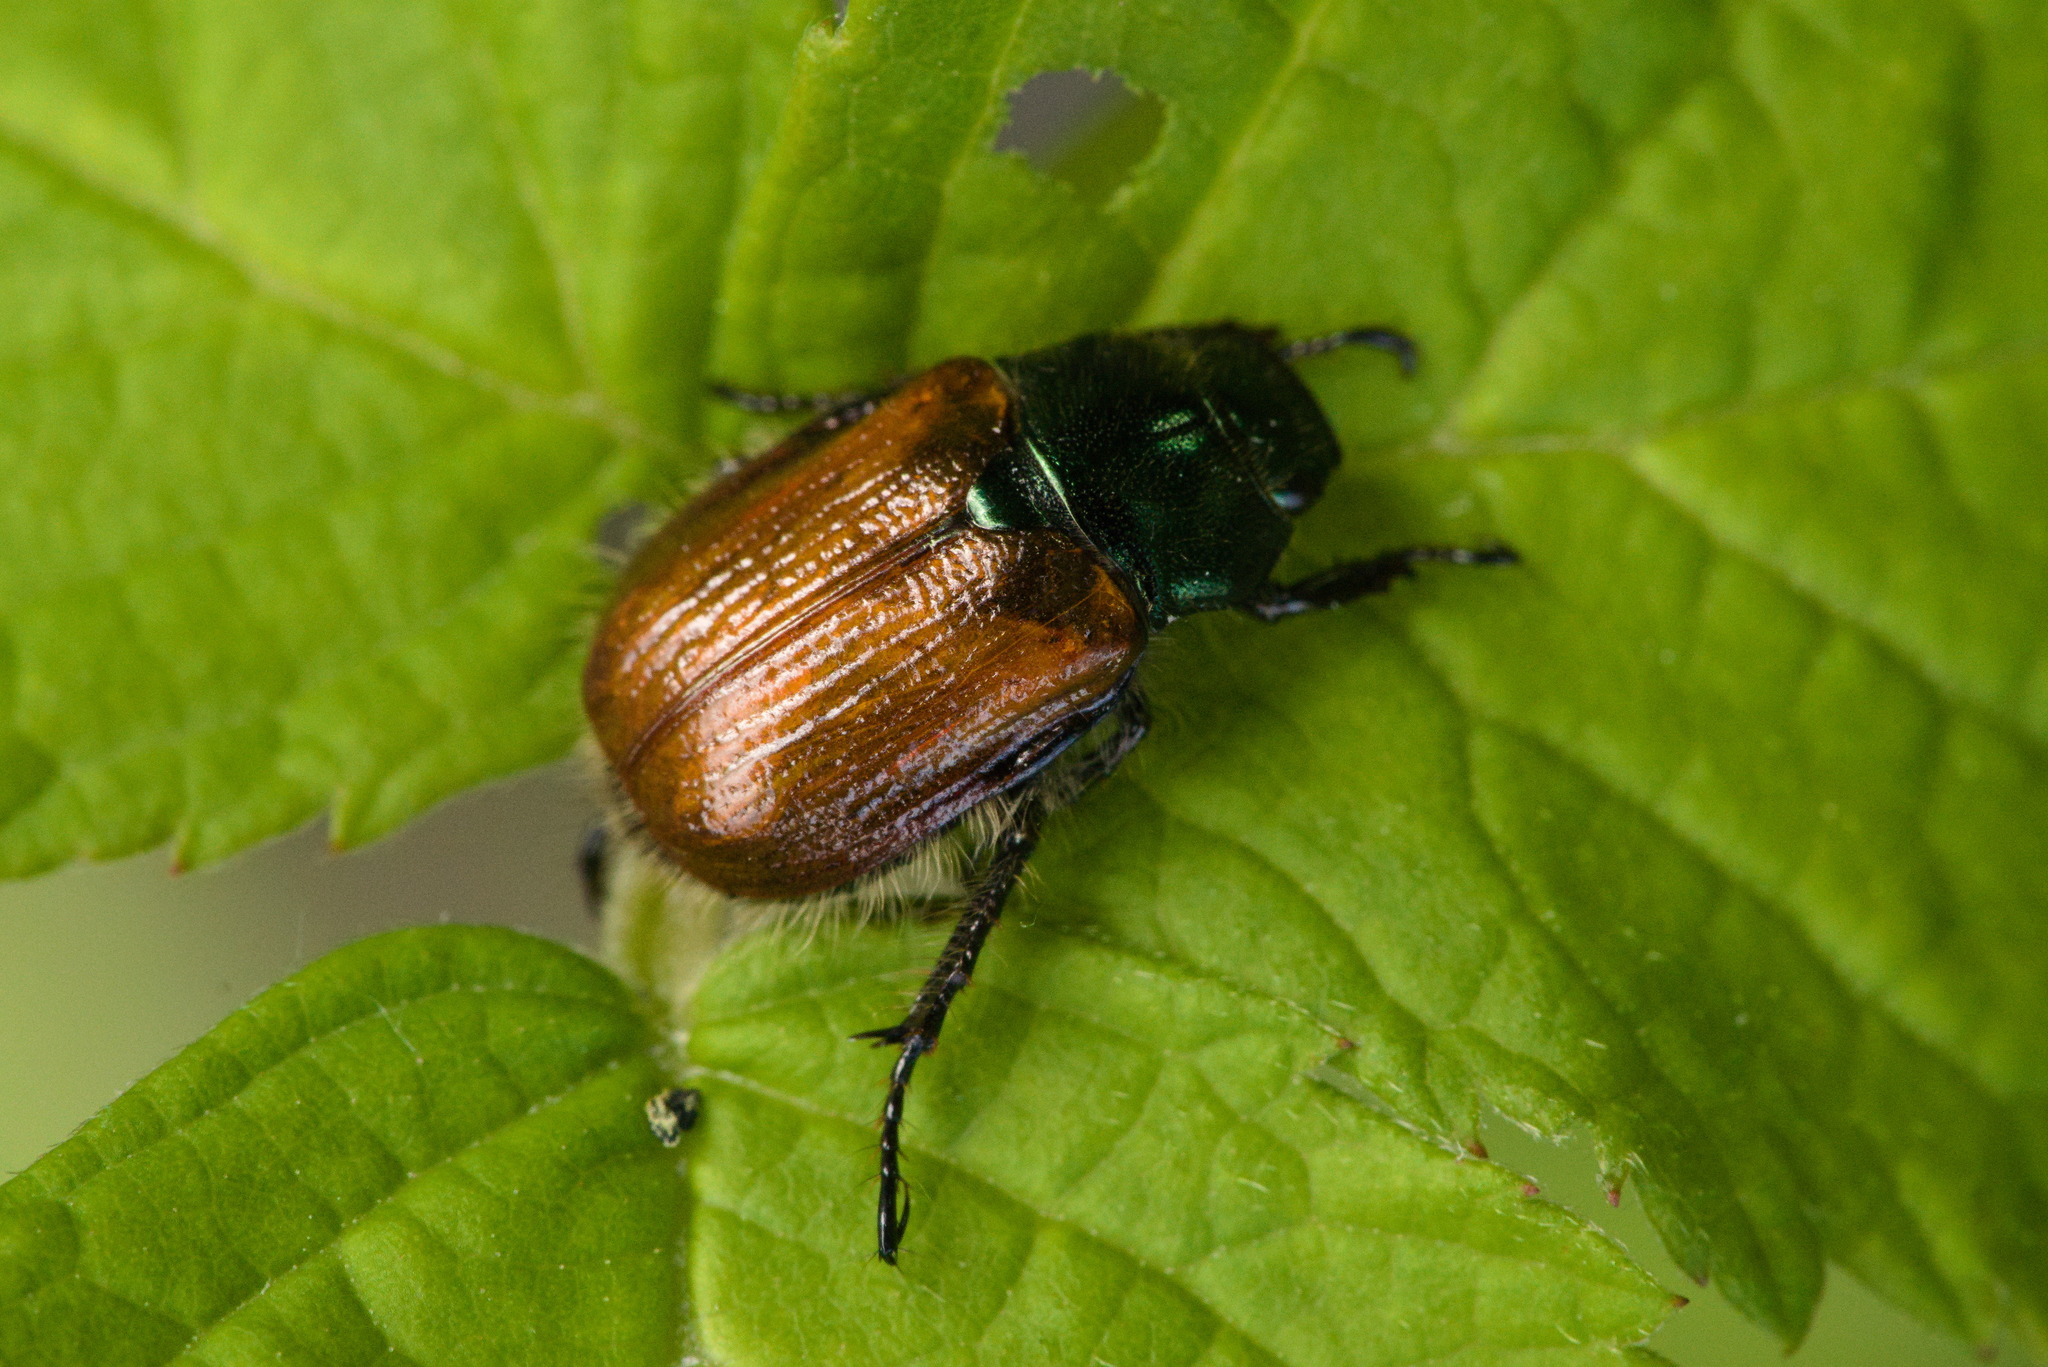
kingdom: Animalia
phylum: Arthropoda
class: Insecta
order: Coleoptera
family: Scarabaeidae
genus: Phyllopertha
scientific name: Phyllopertha horticola
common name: Garden chafer
